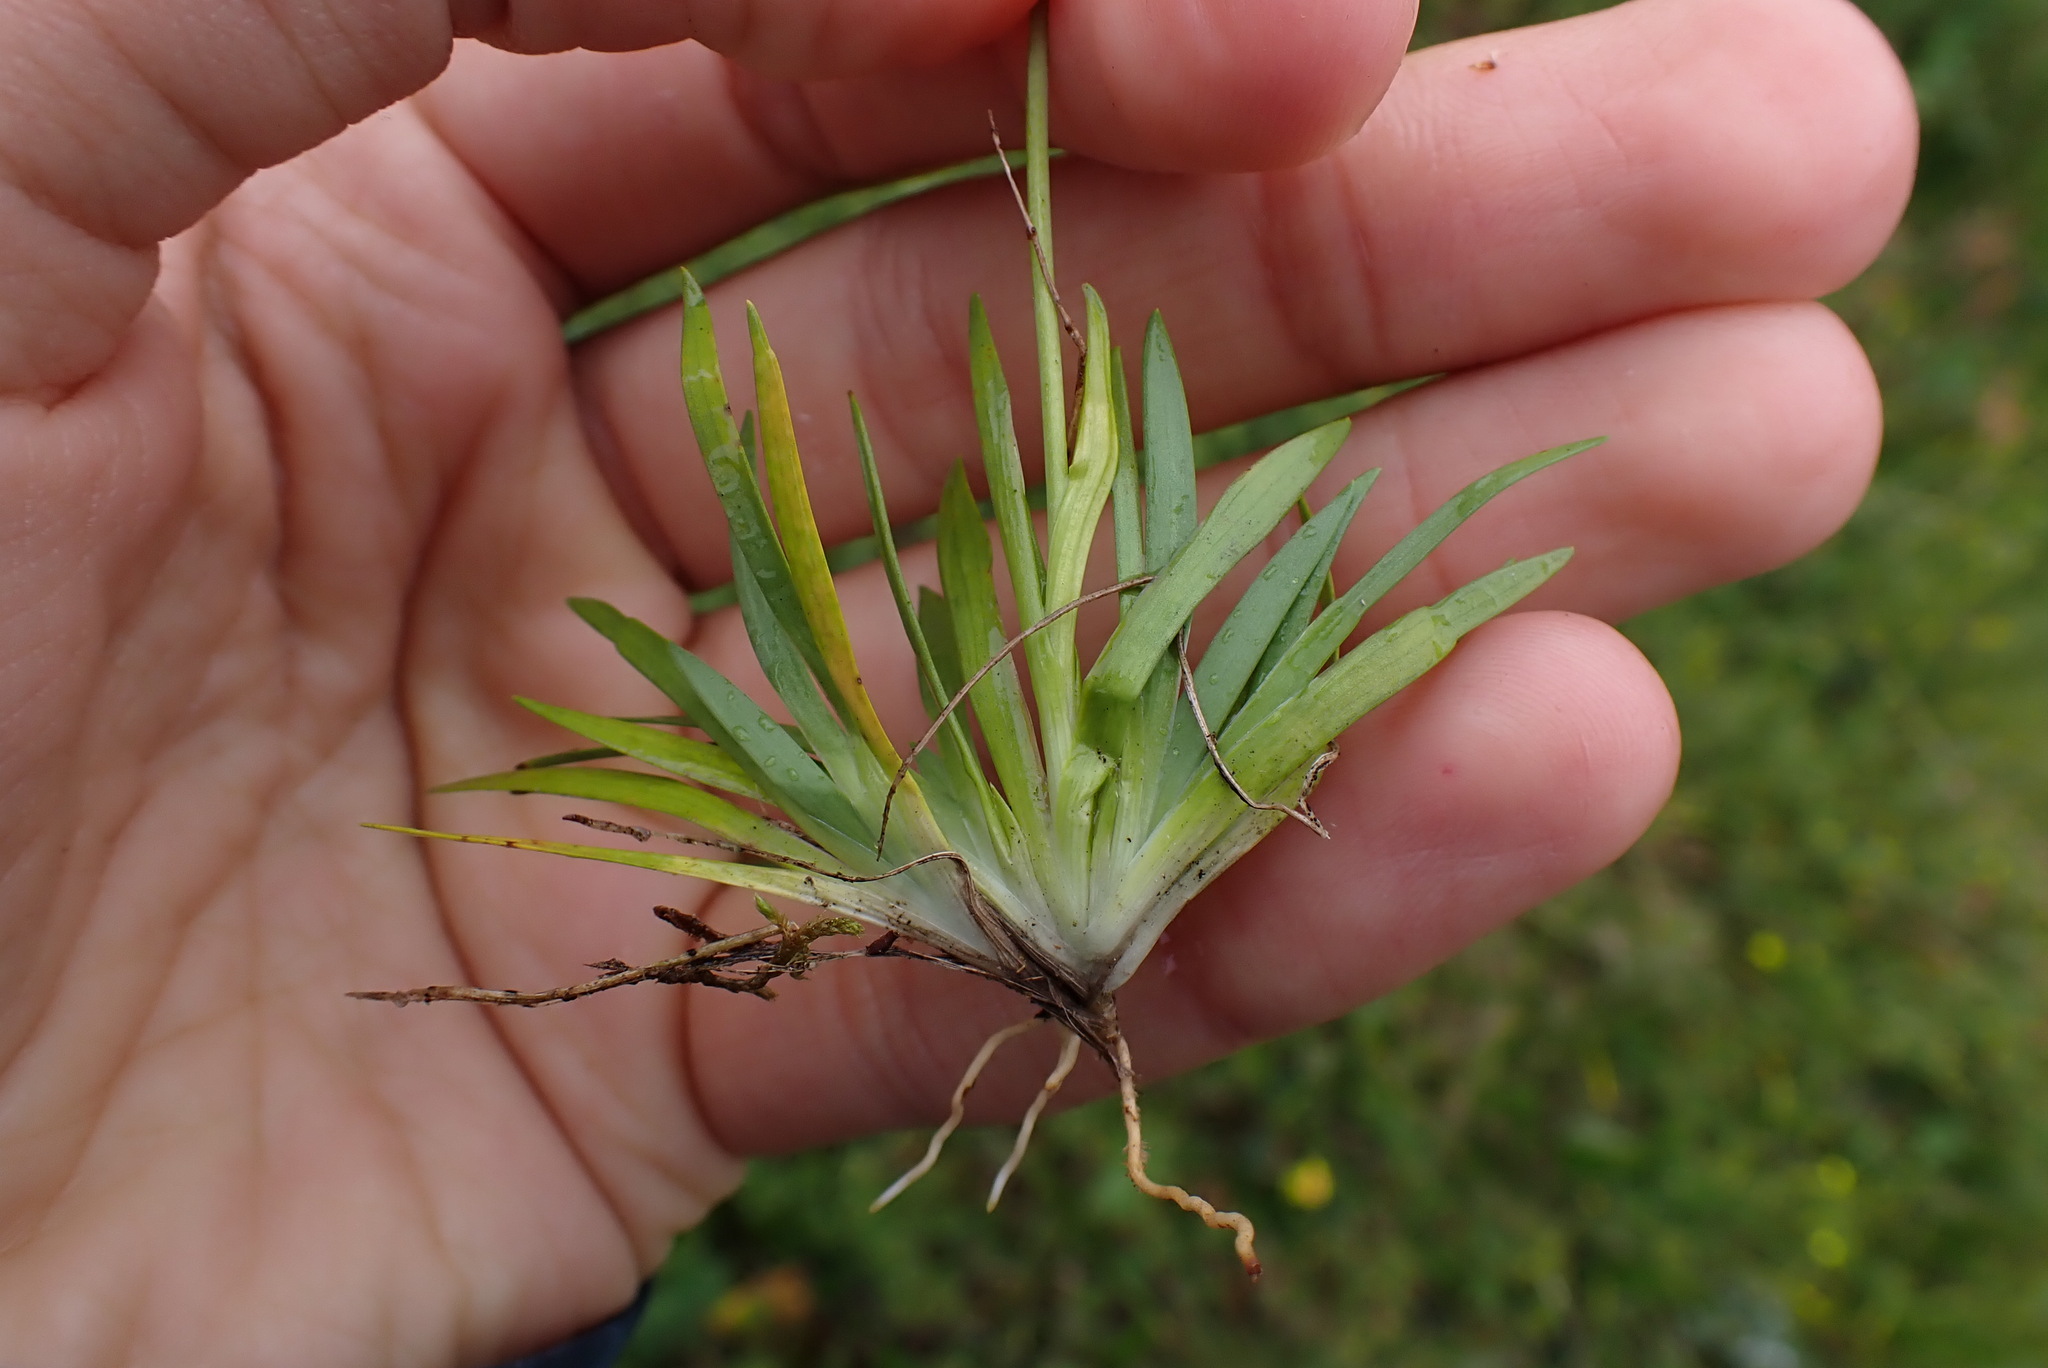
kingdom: Plantae
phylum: Tracheophyta
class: Liliopsida
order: Alismatales
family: Tofieldiaceae
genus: Tofieldia
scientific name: Tofieldia pusilla
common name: Scottish false asphodel
